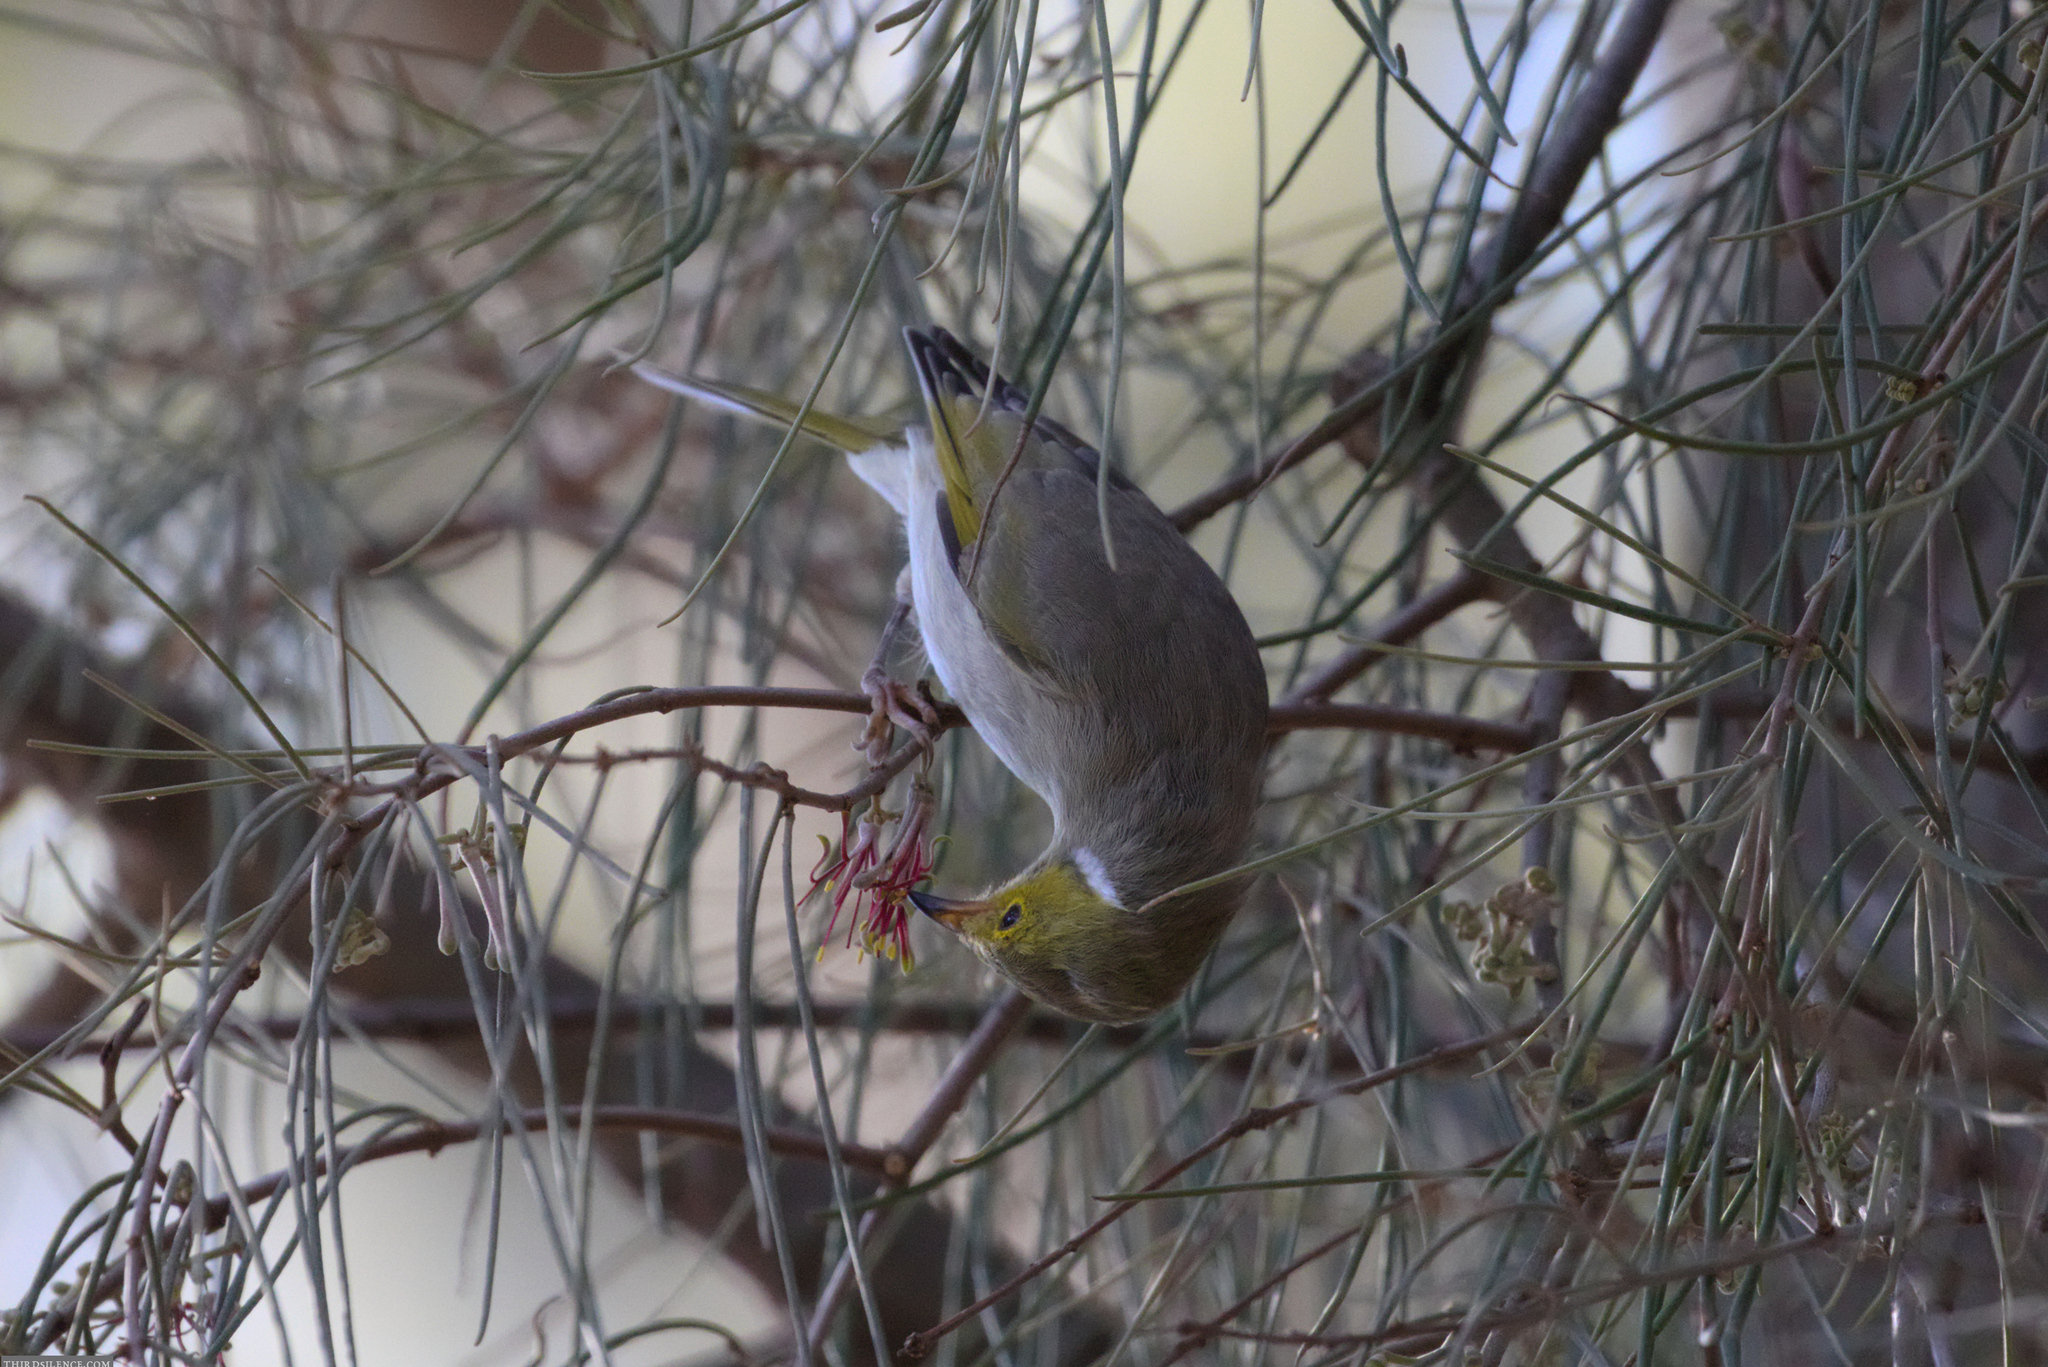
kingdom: Animalia
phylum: Chordata
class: Aves
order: Passeriformes
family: Meliphagidae
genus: Ptilotula
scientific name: Ptilotula penicillata
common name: White-plumed honeyeater
